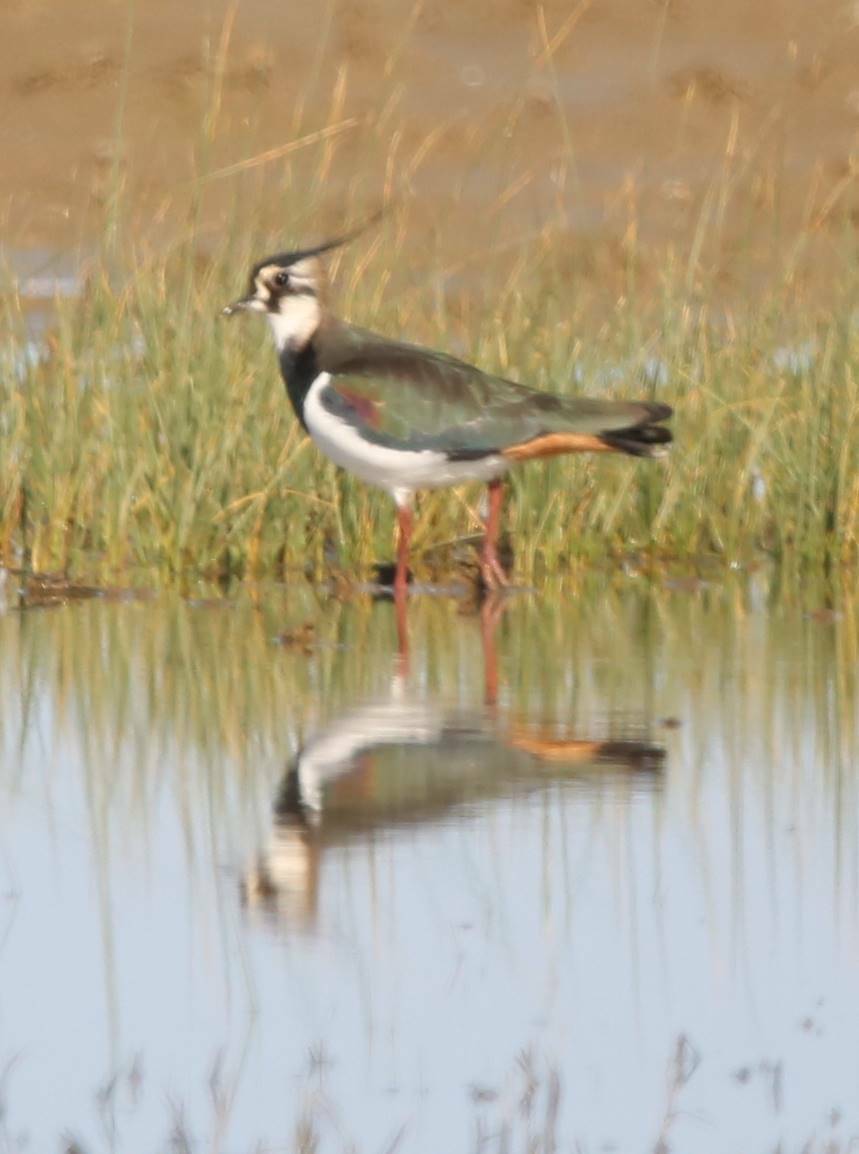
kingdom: Animalia
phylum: Chordata
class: Aves
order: Charadriiformes
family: Charadriidae
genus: Vanellus
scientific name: Vanellus vanellus
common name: Northern lapwing
